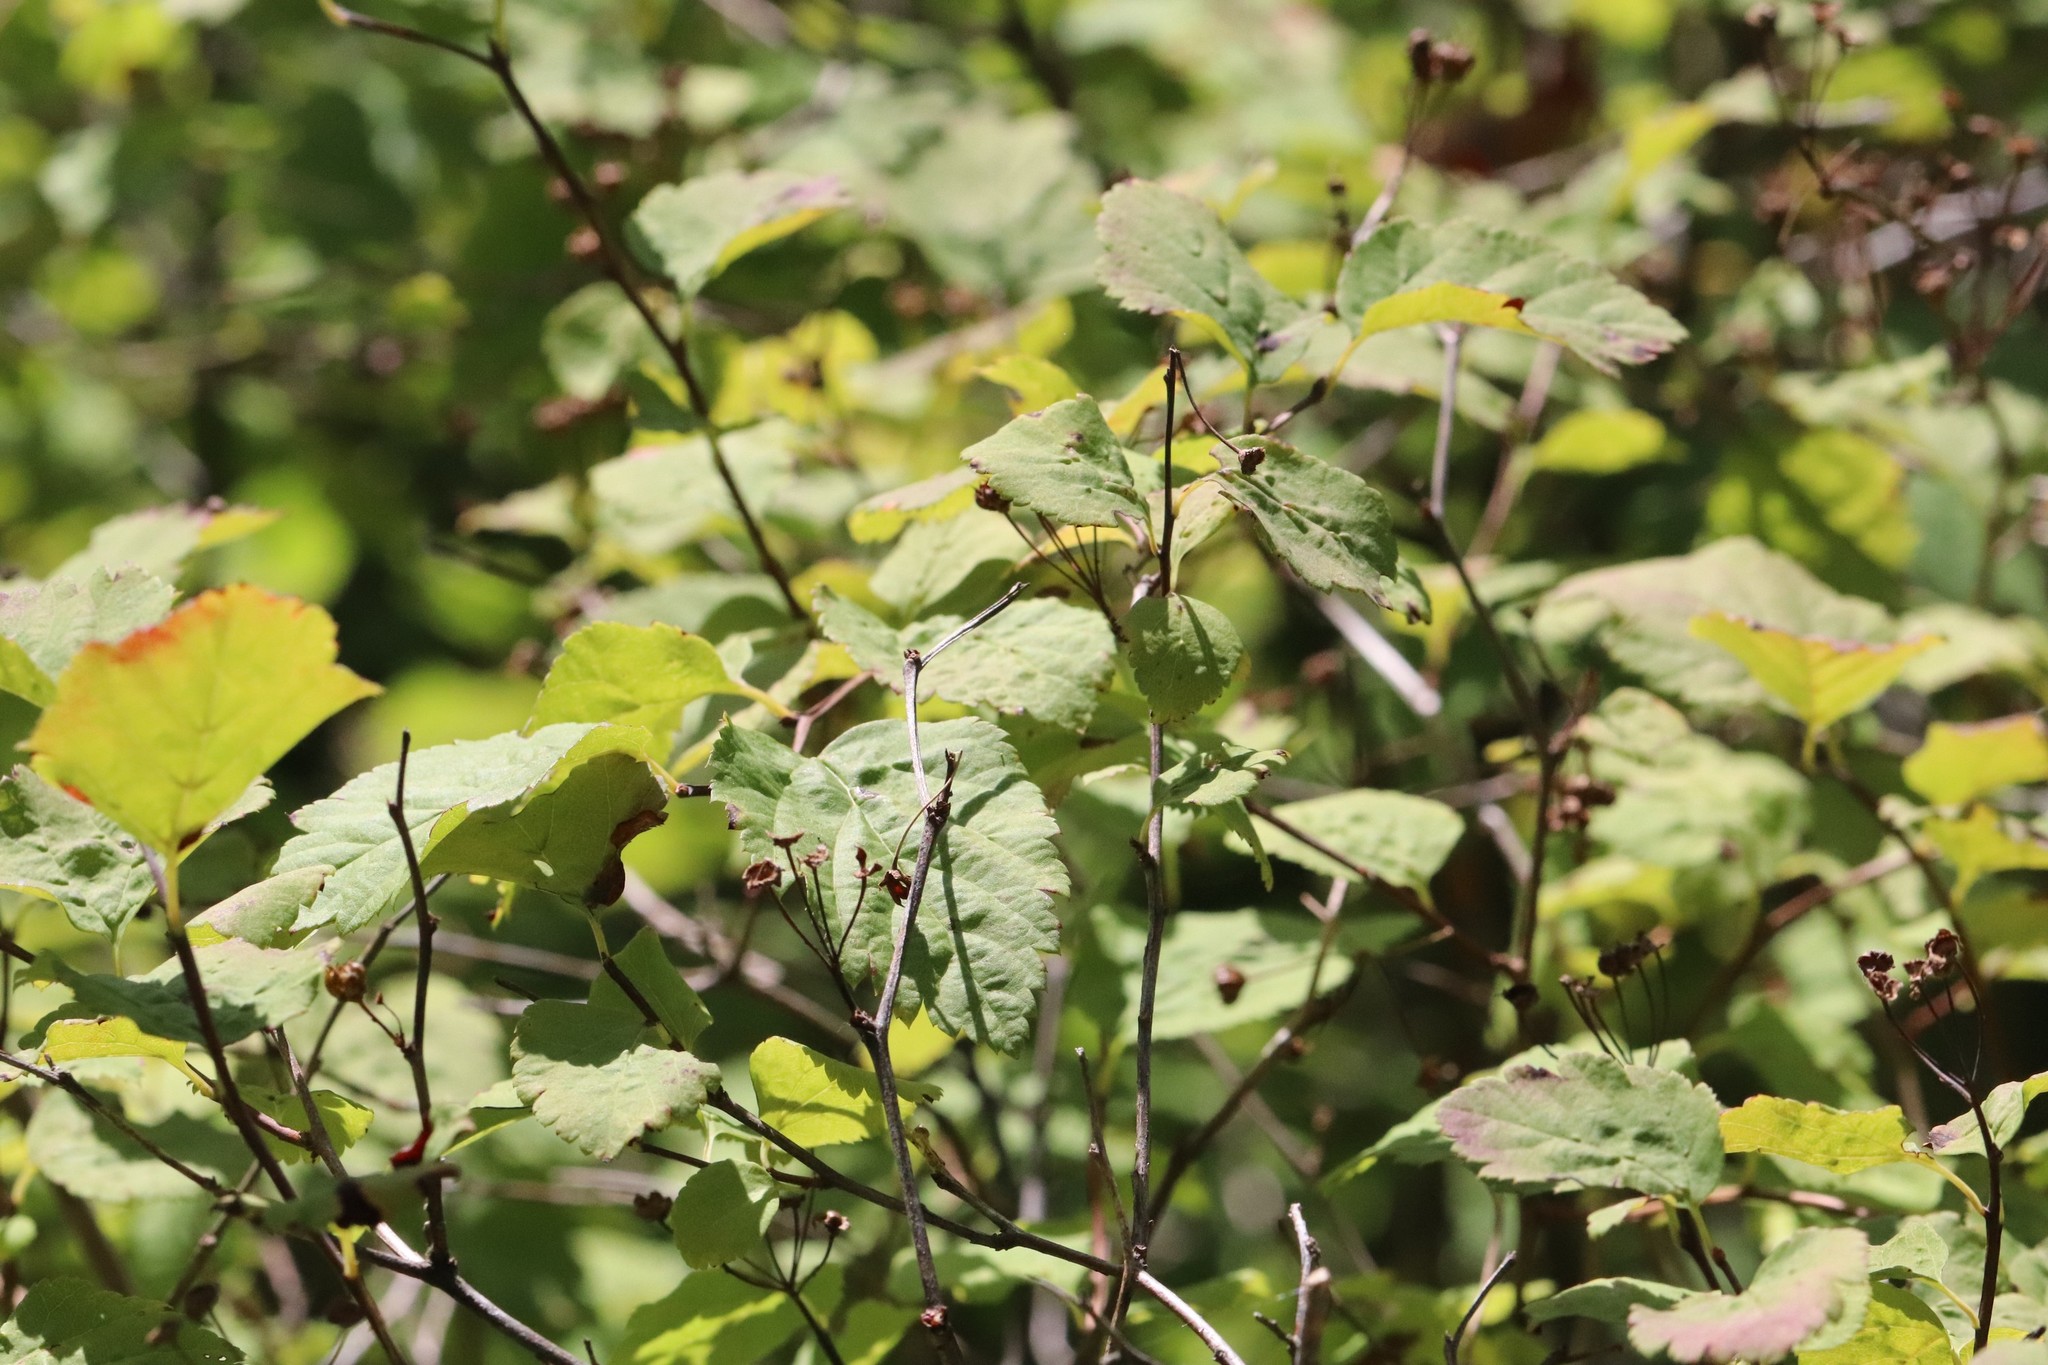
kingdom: Plantae
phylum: Tracheophyta
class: Magnoliopsida
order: Rosales
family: Rosaceae
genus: Spiraea
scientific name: Spiraea chamaedryfolia
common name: Elm-leaved spiraea
